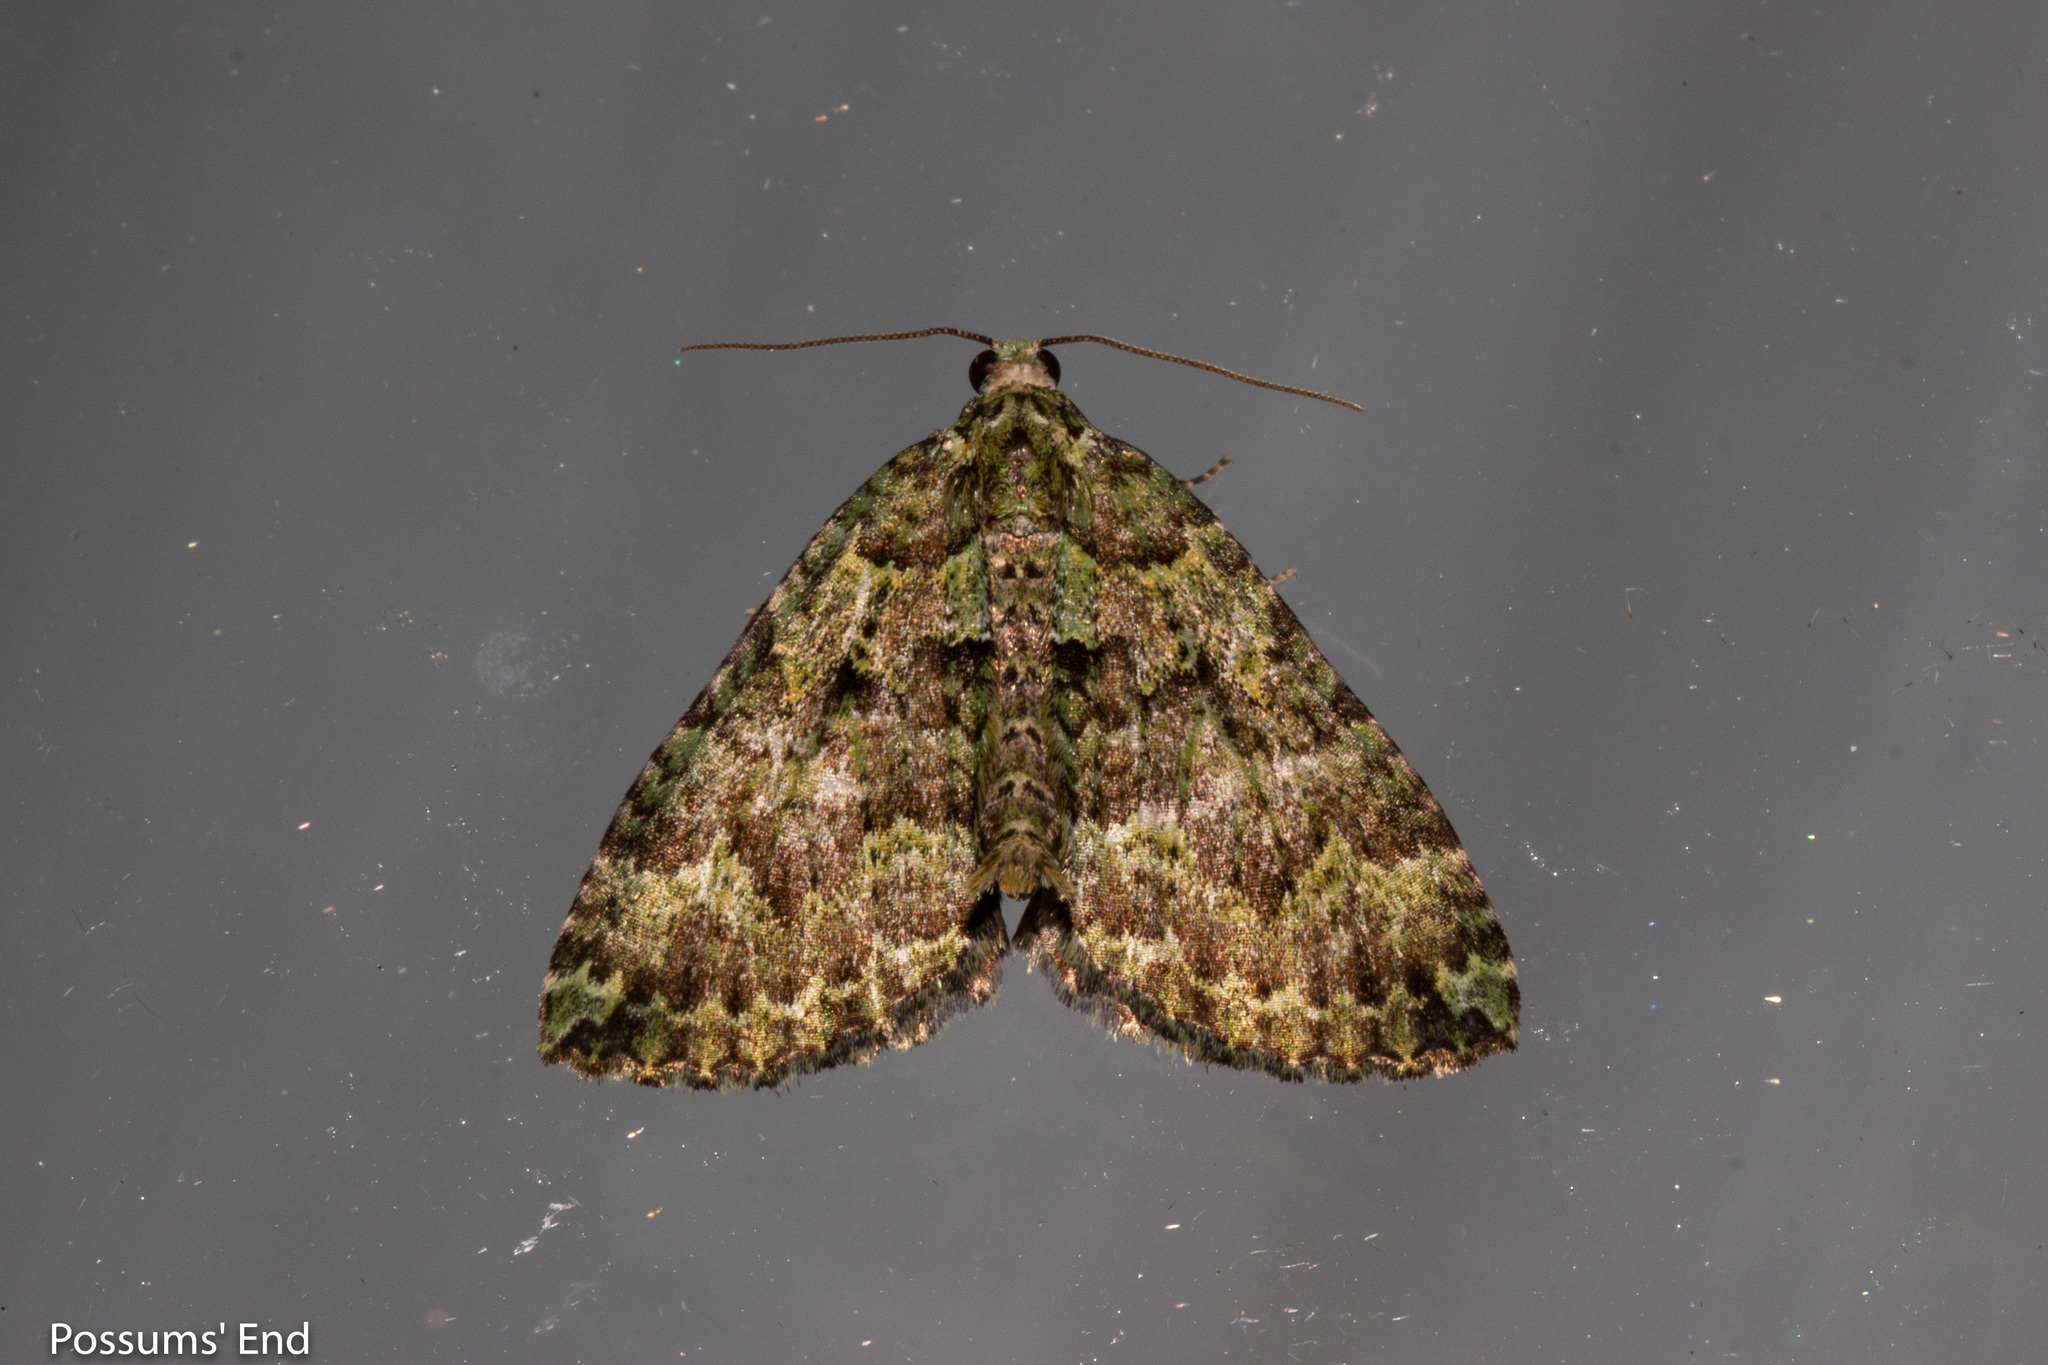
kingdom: Animalia
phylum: Arthropoda
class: Insecta
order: Lepidoptera
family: Geometridae
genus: Austrocidaria
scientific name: Austrocidaria callichlora
